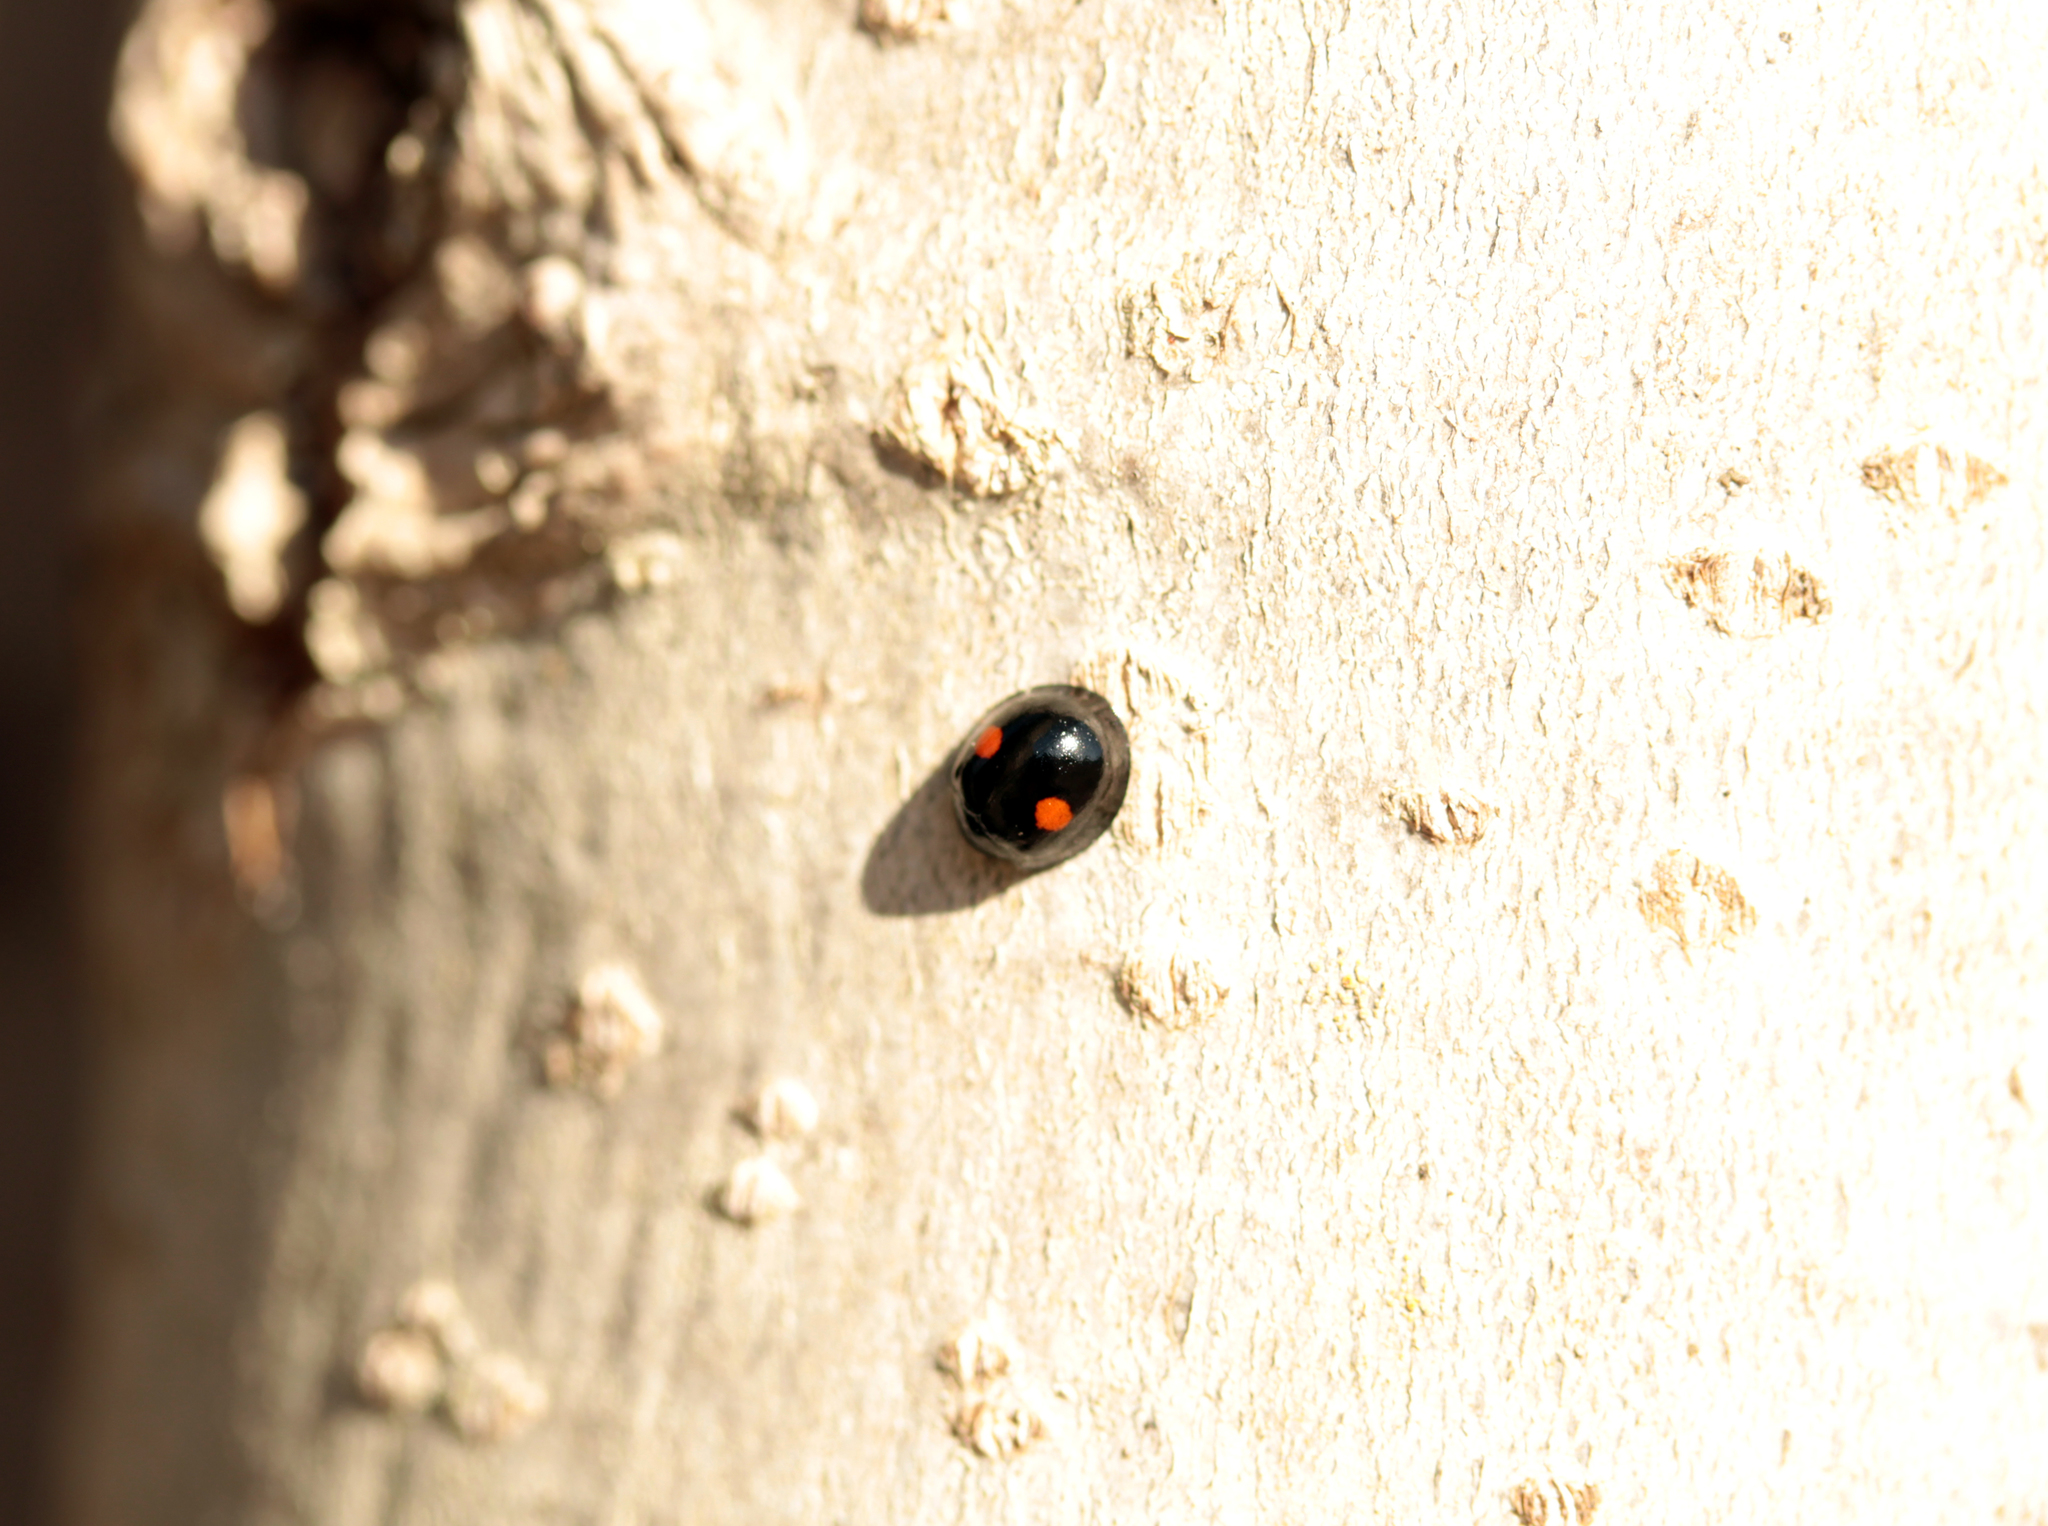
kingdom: Animalia
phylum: Arthropoda
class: Insecta
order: Coleoptera
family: Coccinellidae
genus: Chilocorus
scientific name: Chilocorus stigma
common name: Twicestabbed lady beetle
